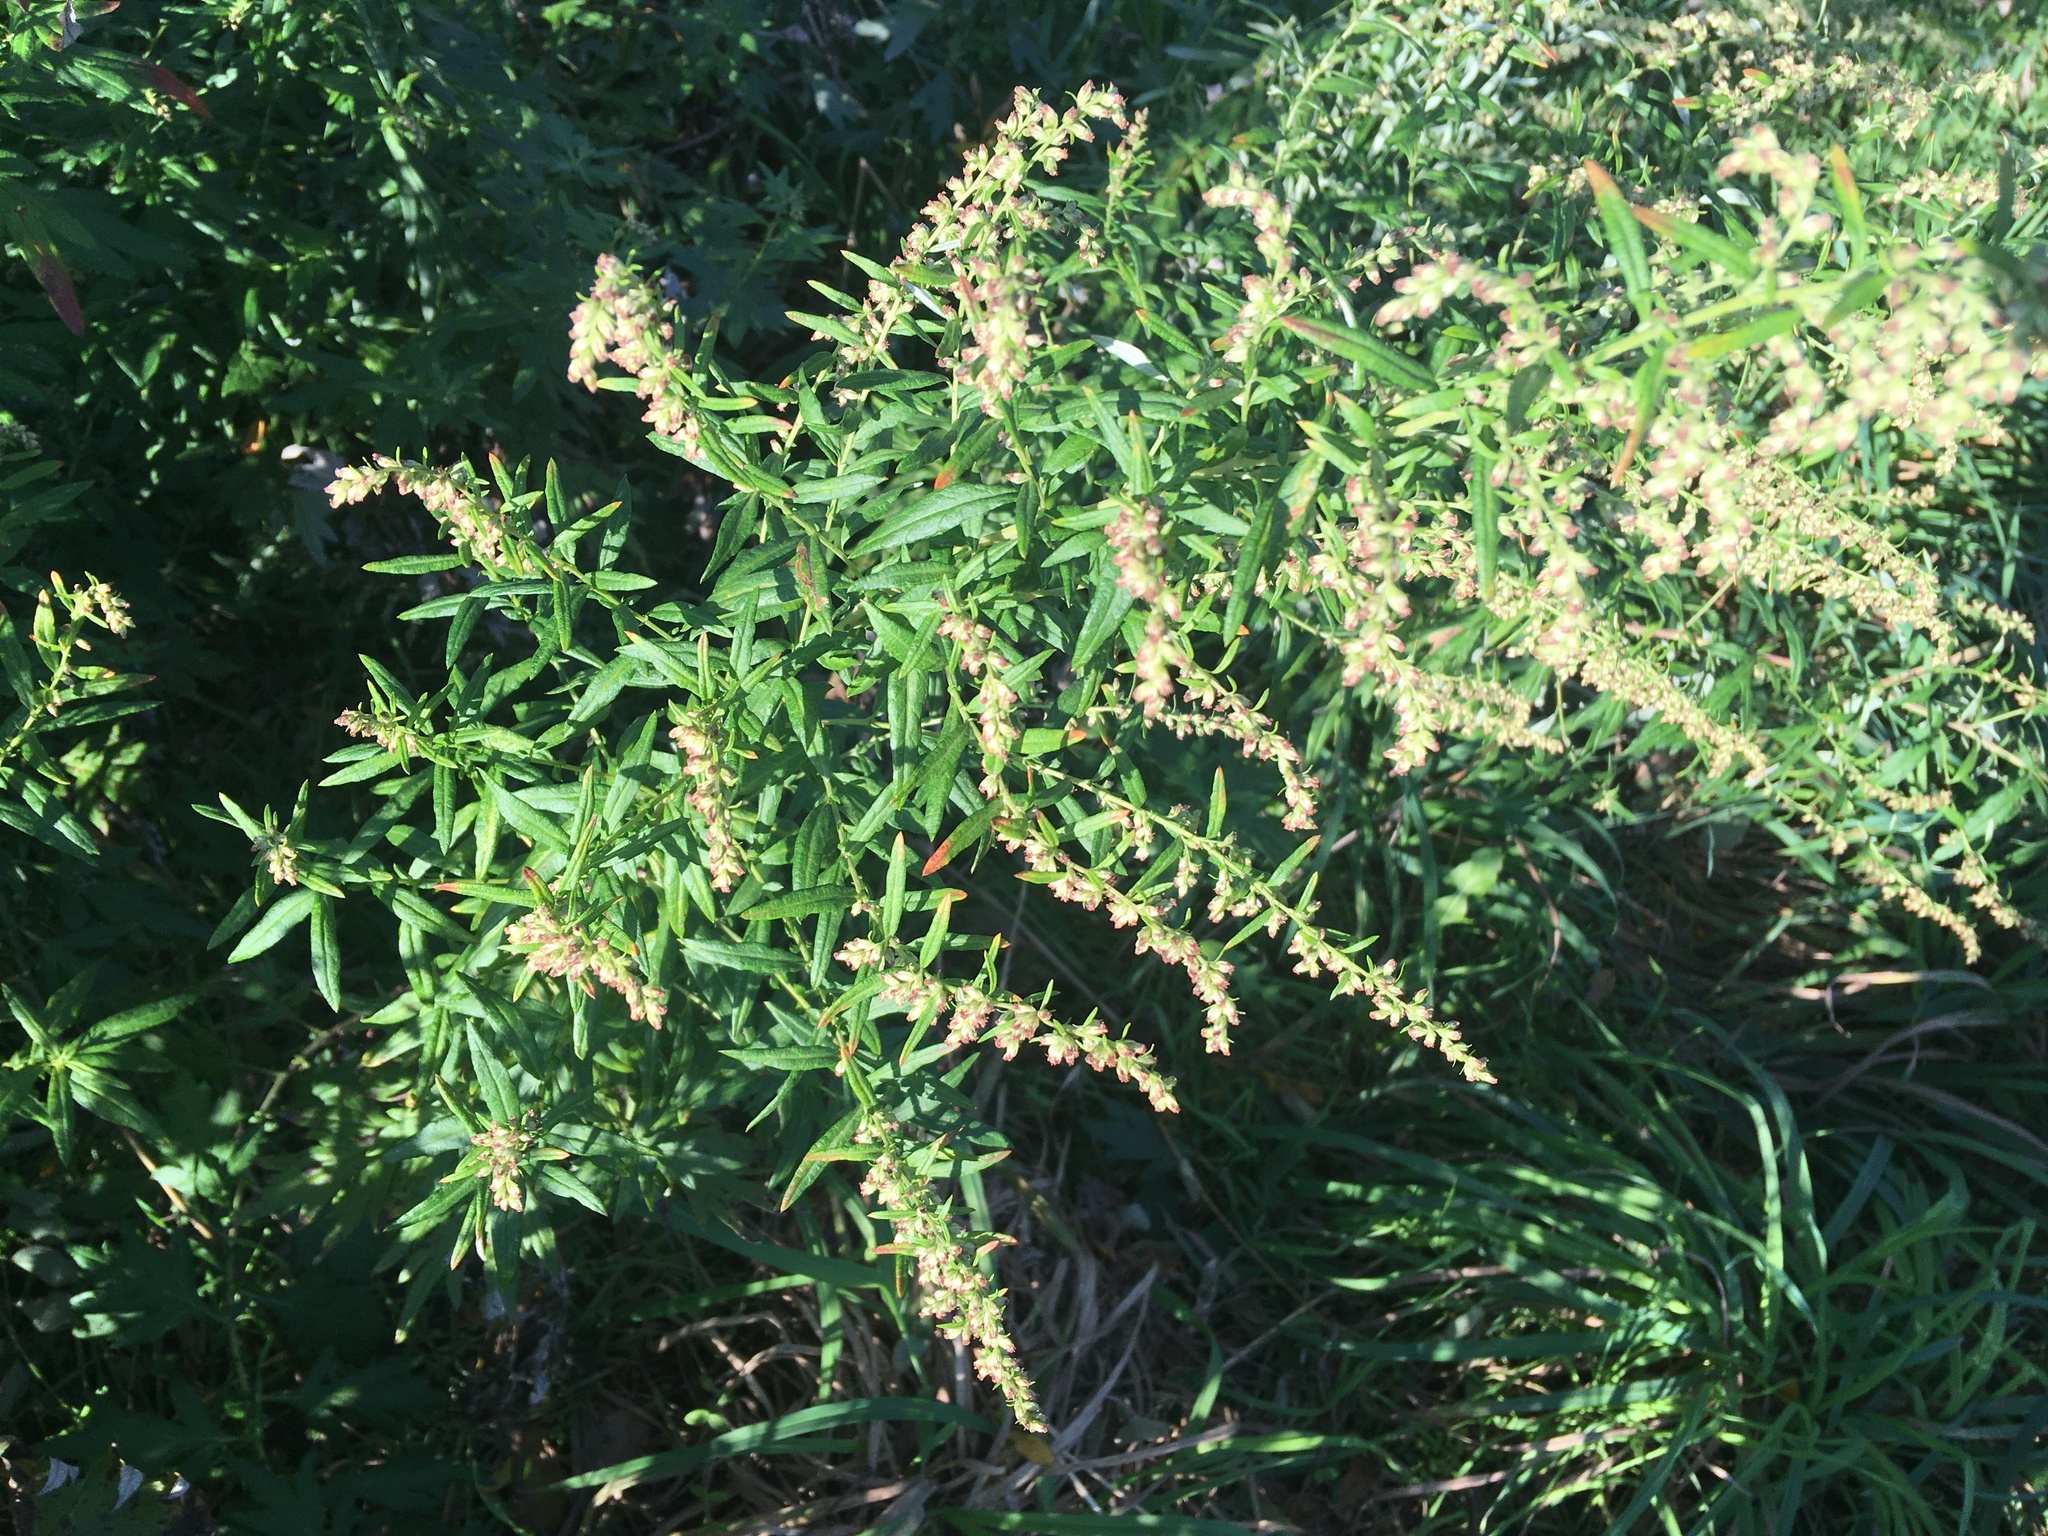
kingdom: Plantae
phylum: Tracheophyta
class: Magnoliopsida
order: Asterales
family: Asteraceae
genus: Artemisia
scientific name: Artemisia vulgaris
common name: Mugwort
